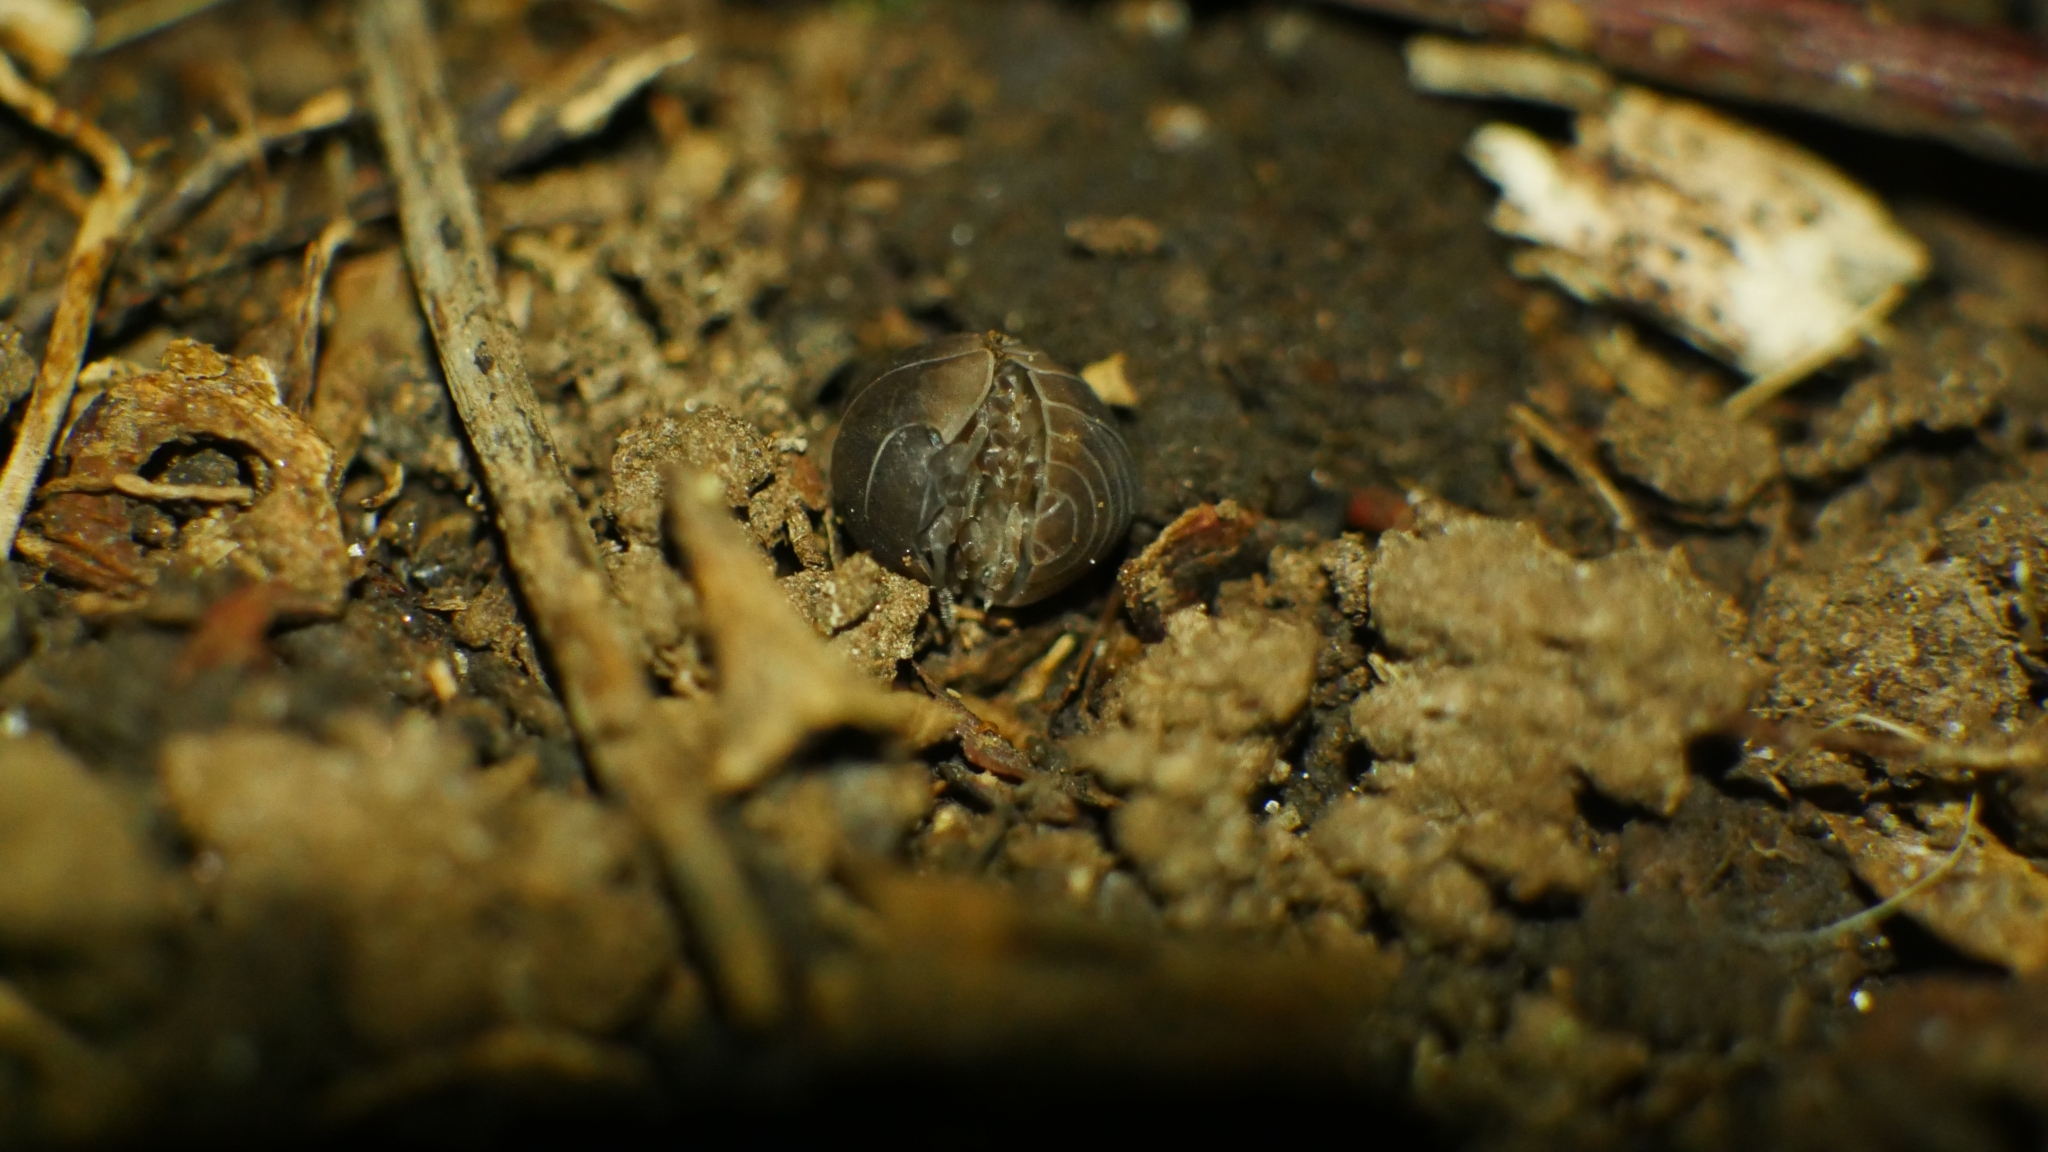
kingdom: Animalia
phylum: Arthropoda
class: Malacostraca
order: Isopoda
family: Armadillidiidae
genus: Armadillidium
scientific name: Armadillidium vulgare
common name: Common pill woodlouse
